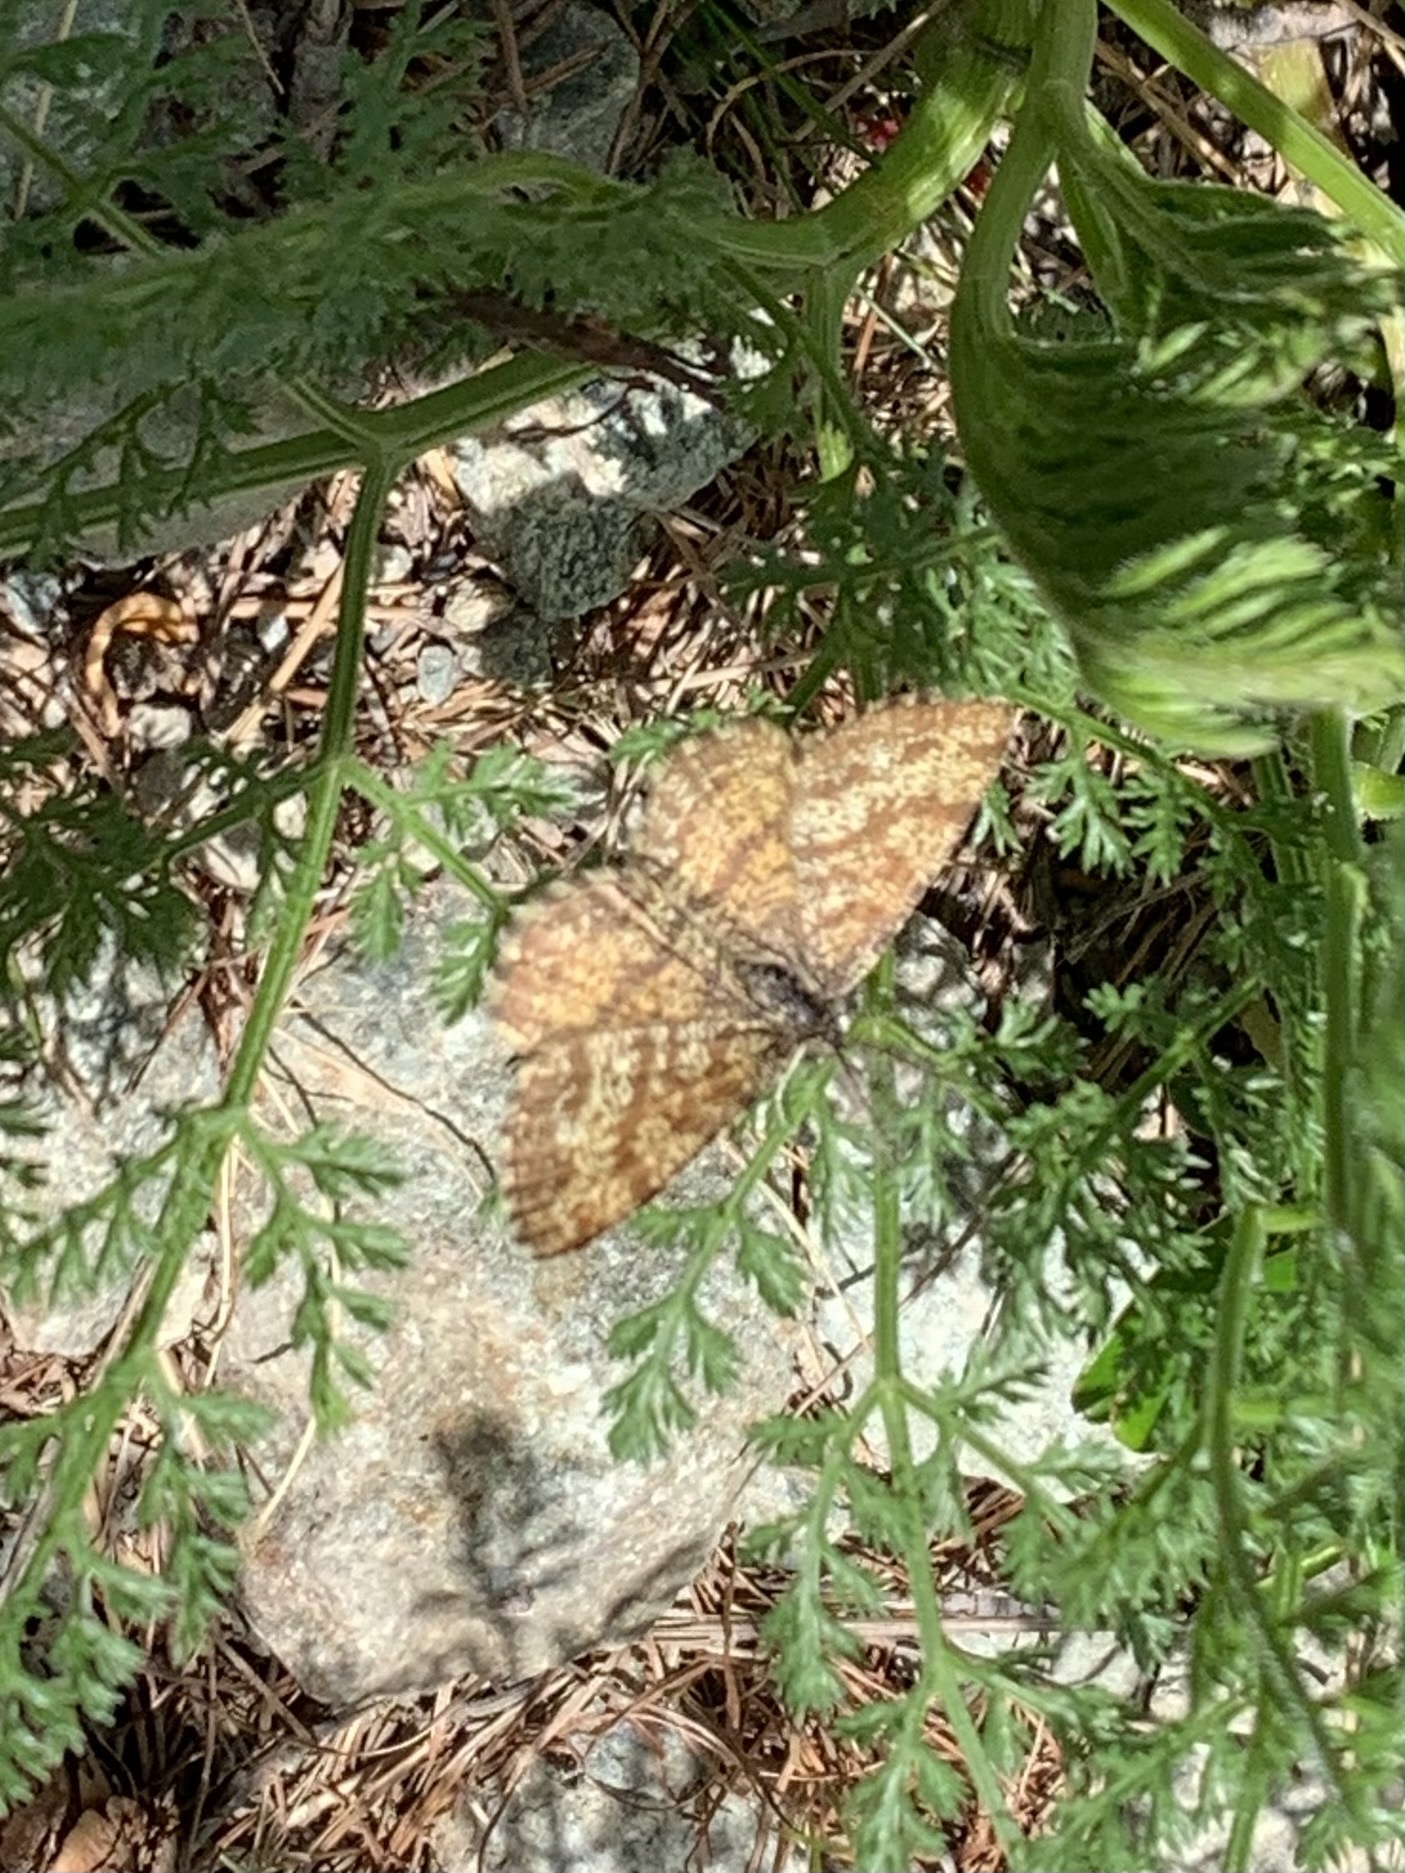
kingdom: Animalia
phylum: Arthropoda
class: Insecta
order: Lepidoptera
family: Geometridae
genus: Ematurga
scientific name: Ematurga atomaria
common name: Common heath
